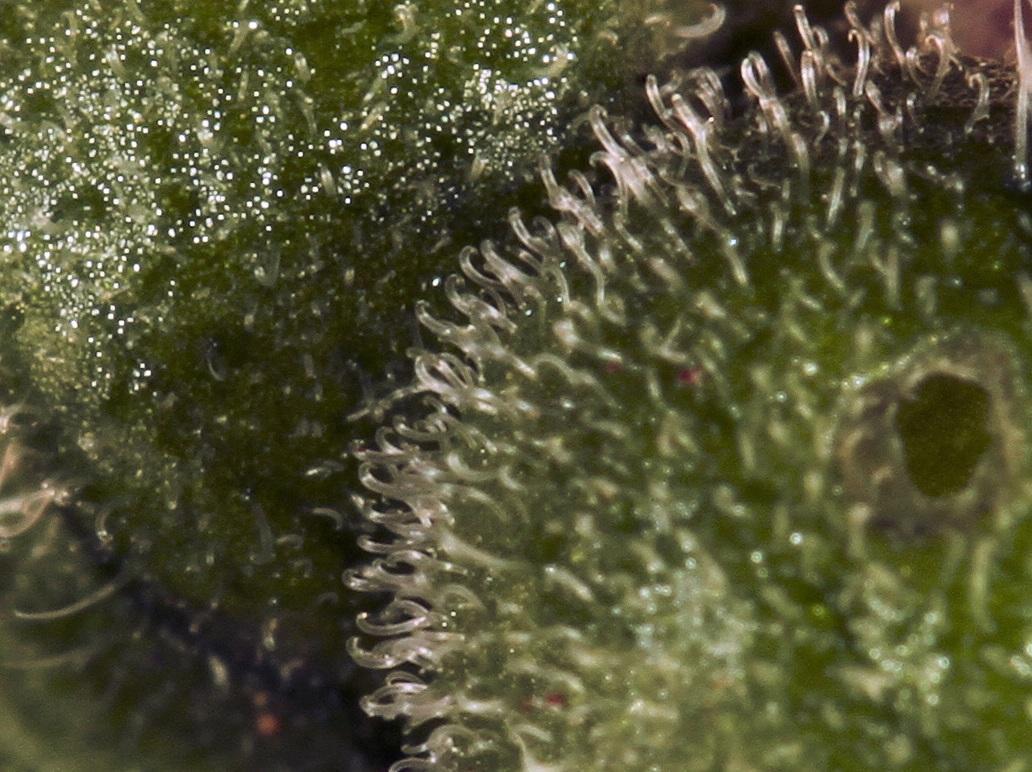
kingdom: Plantae
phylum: Tracheophyta
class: Magnoliopsida
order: Lamiales
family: Verbenaceae
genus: Priva
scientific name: Priva adhaerens
